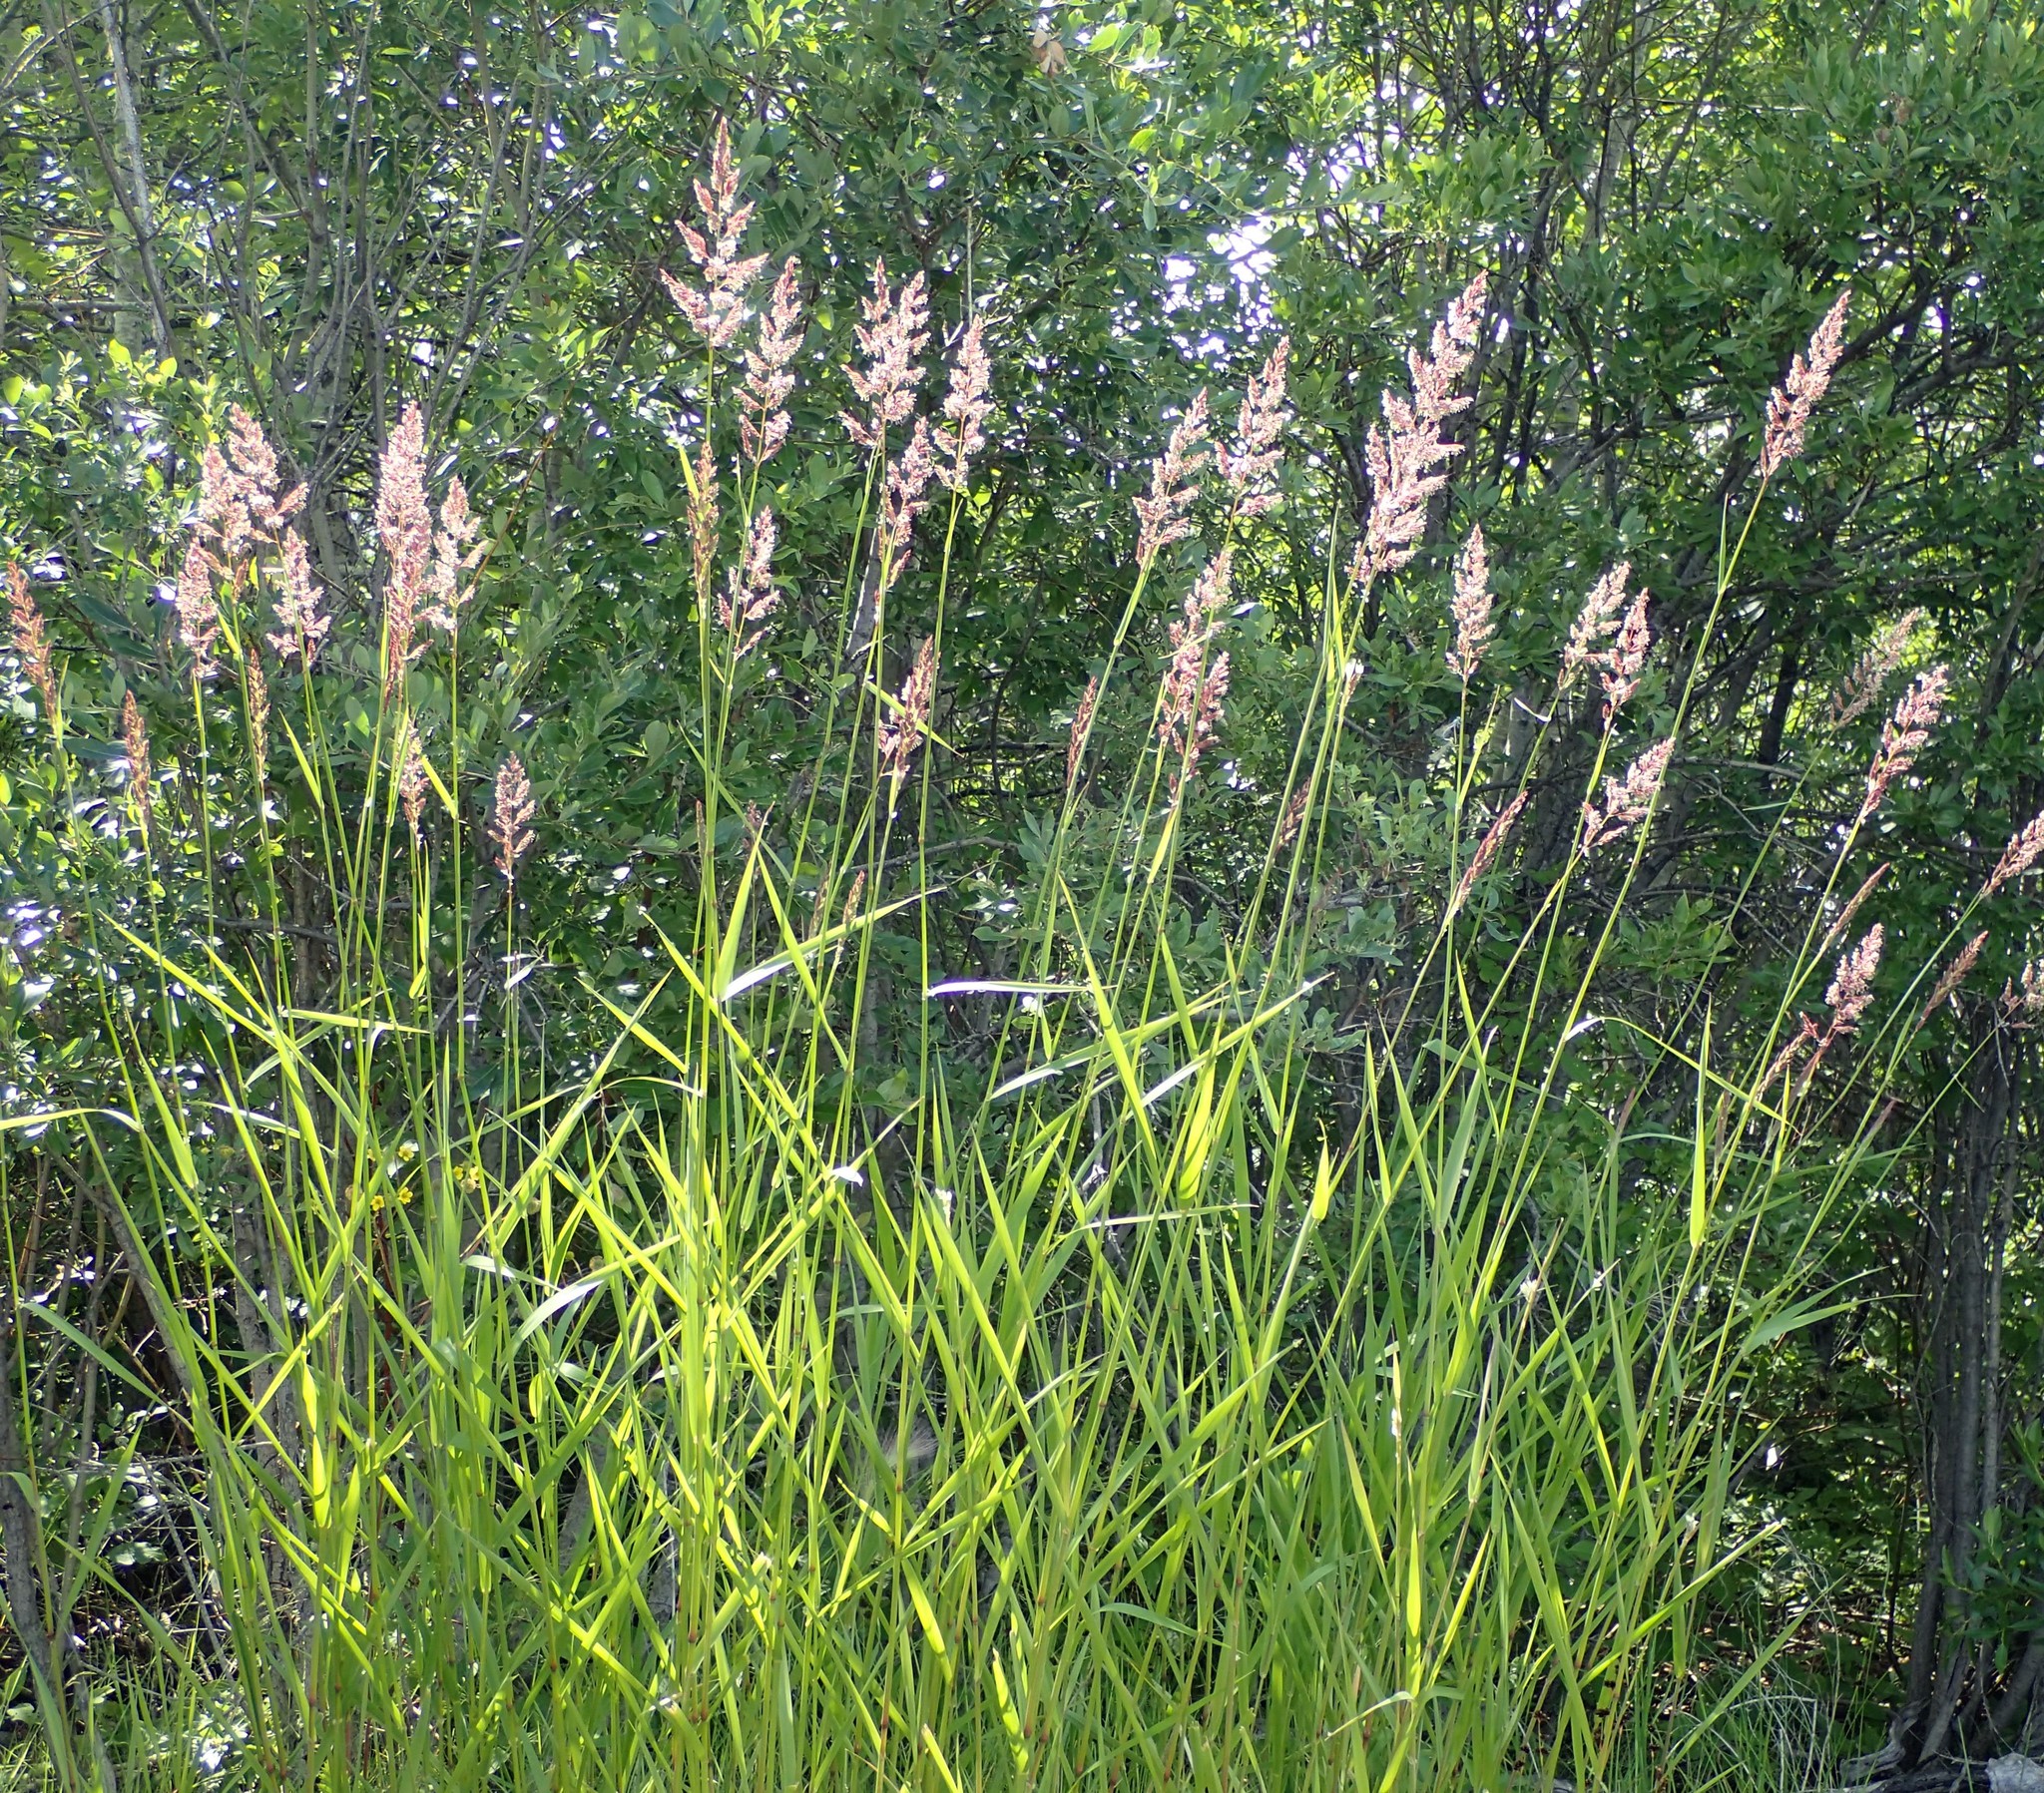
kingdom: Plantae
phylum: Tracheophyta
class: Liliopsida
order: Poales
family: Poaceae
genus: Phalaris
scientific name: Phalaris arundinacea
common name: Reed canary-grass
